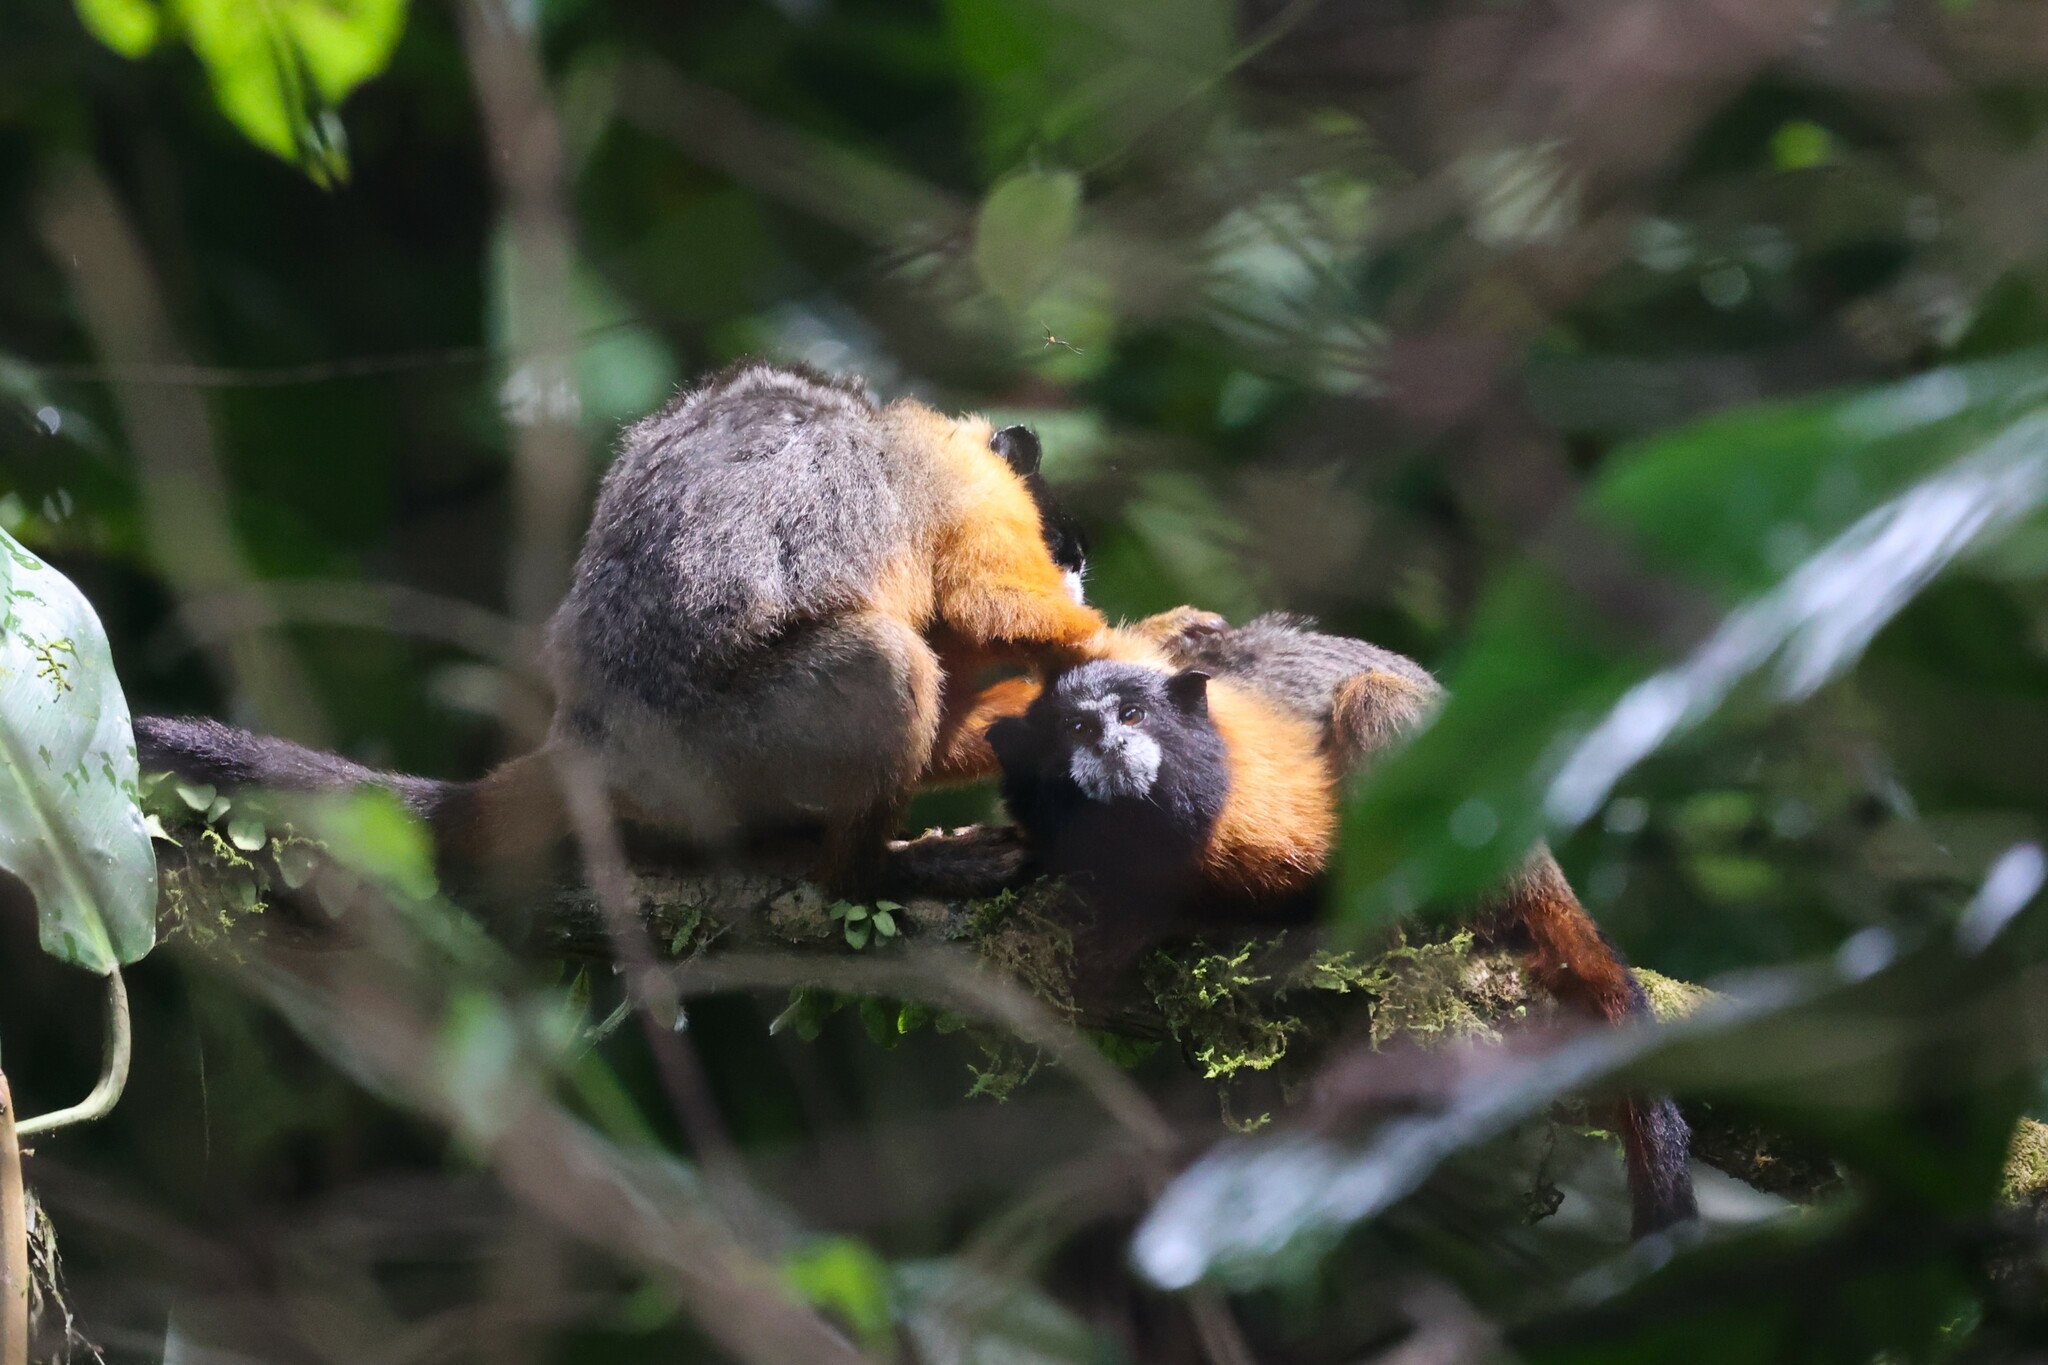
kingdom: Animalia
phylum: Chordata
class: Mammalia
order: Primates
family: Callitrichidae
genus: Leontocebus
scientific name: Leontocebus tripartitus
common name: Golden-mantled saddle-back tamarin
